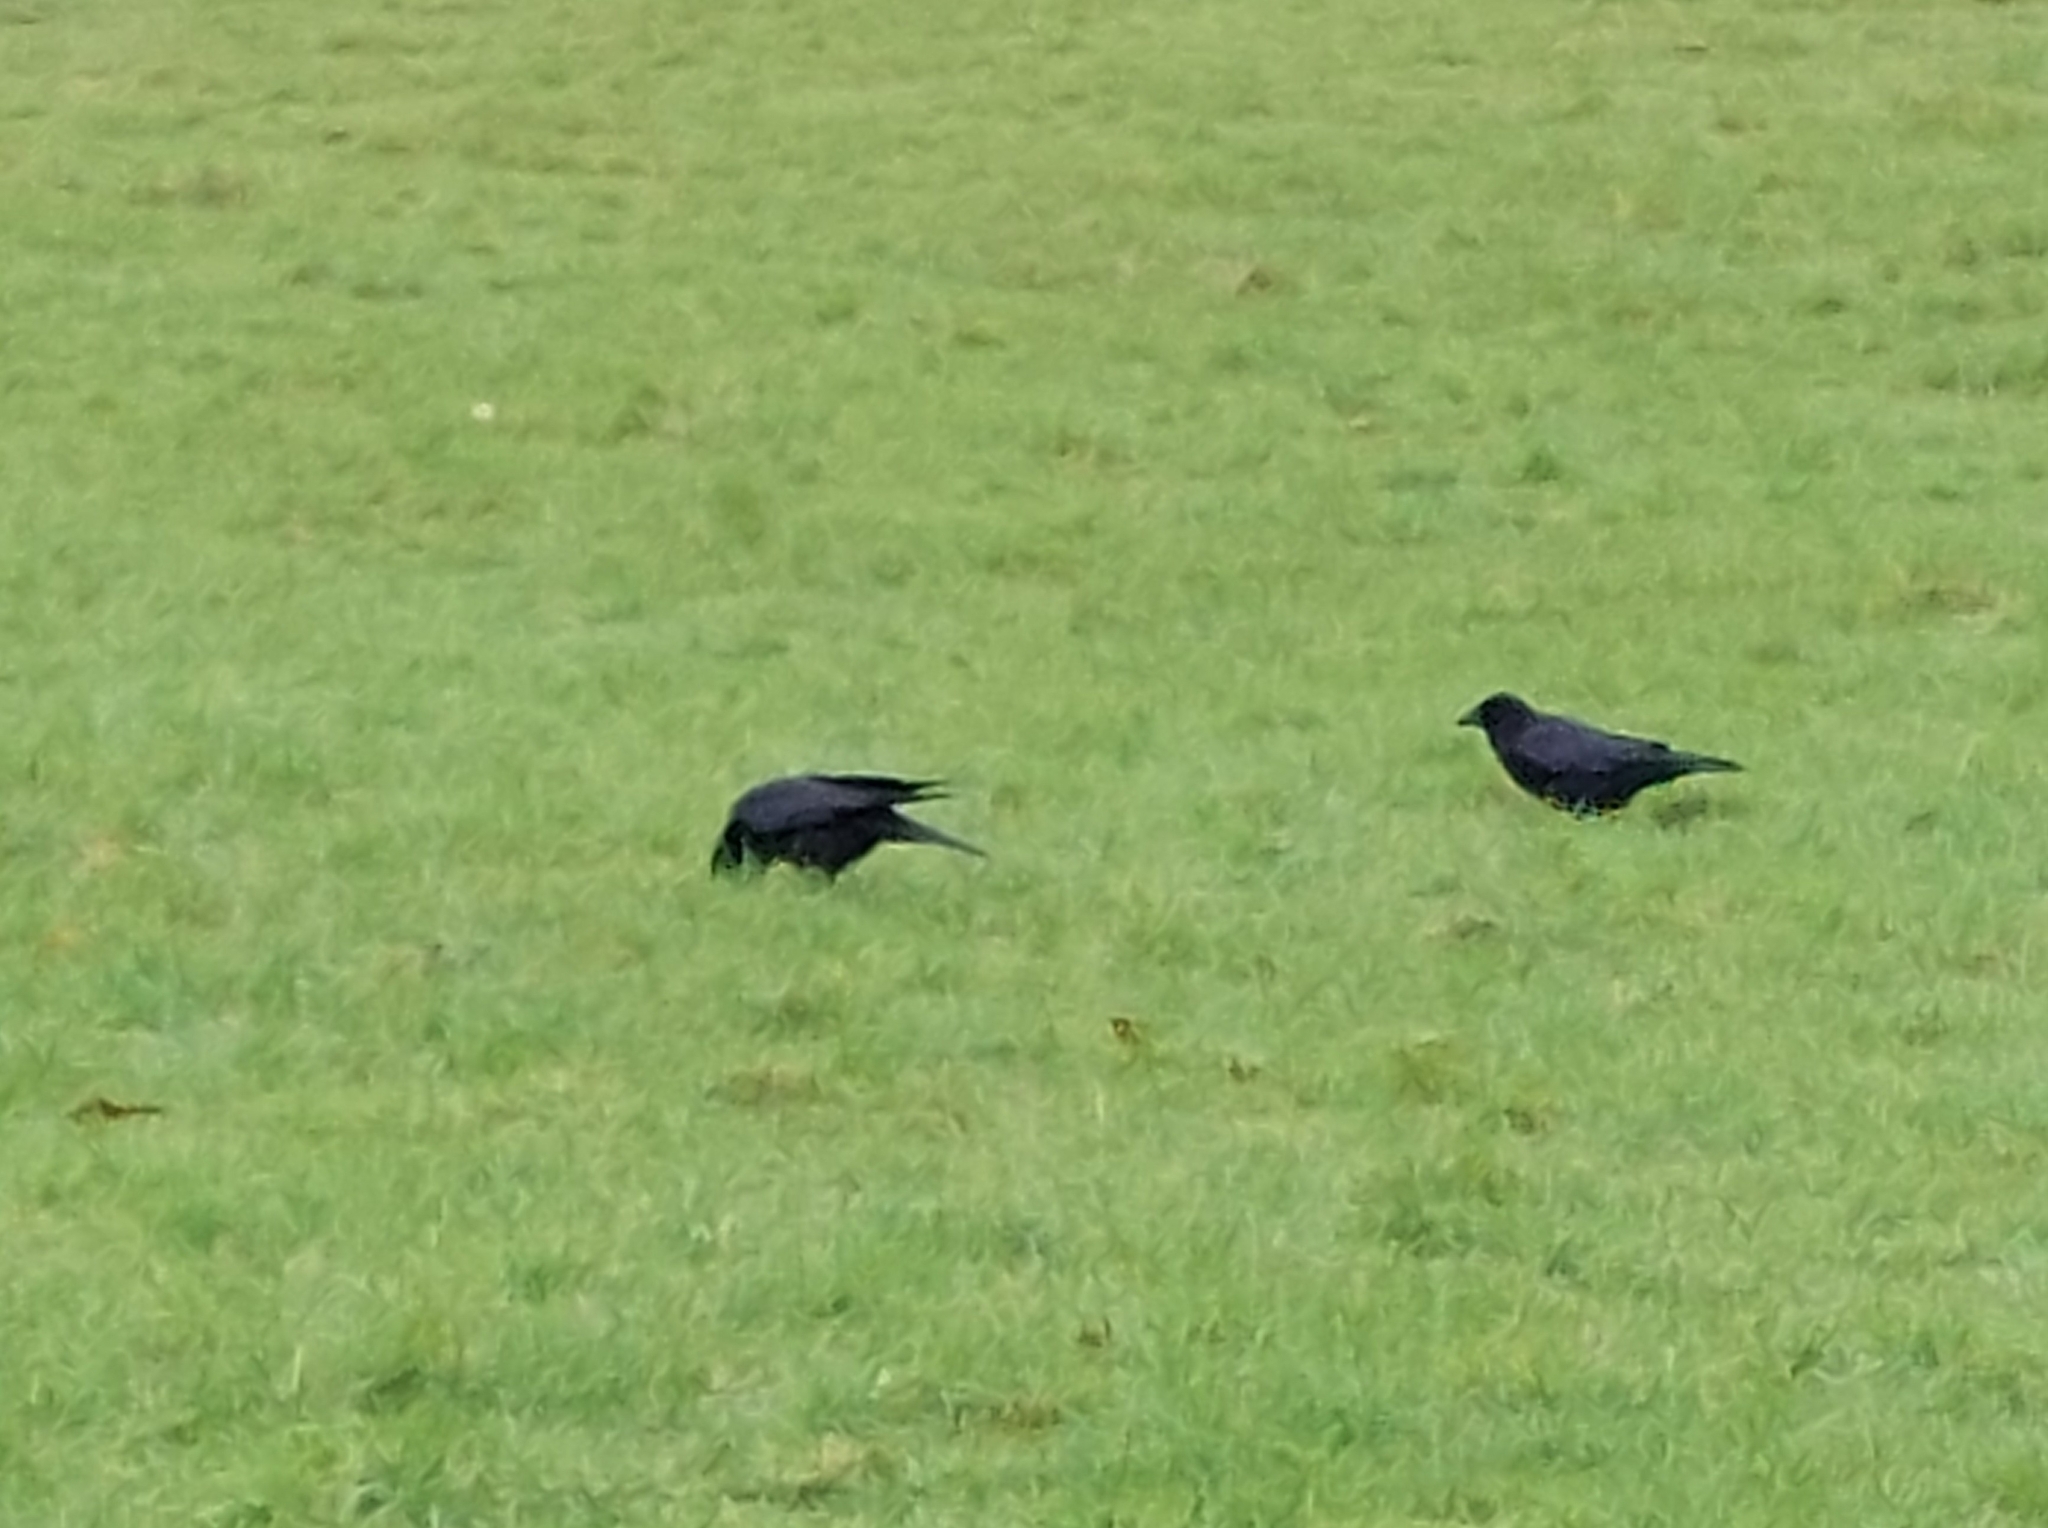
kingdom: Animalia
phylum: Chordata
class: Aves
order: Passeriformes
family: Corvidae
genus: Corvus
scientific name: Corvus corone
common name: Carrion crow
